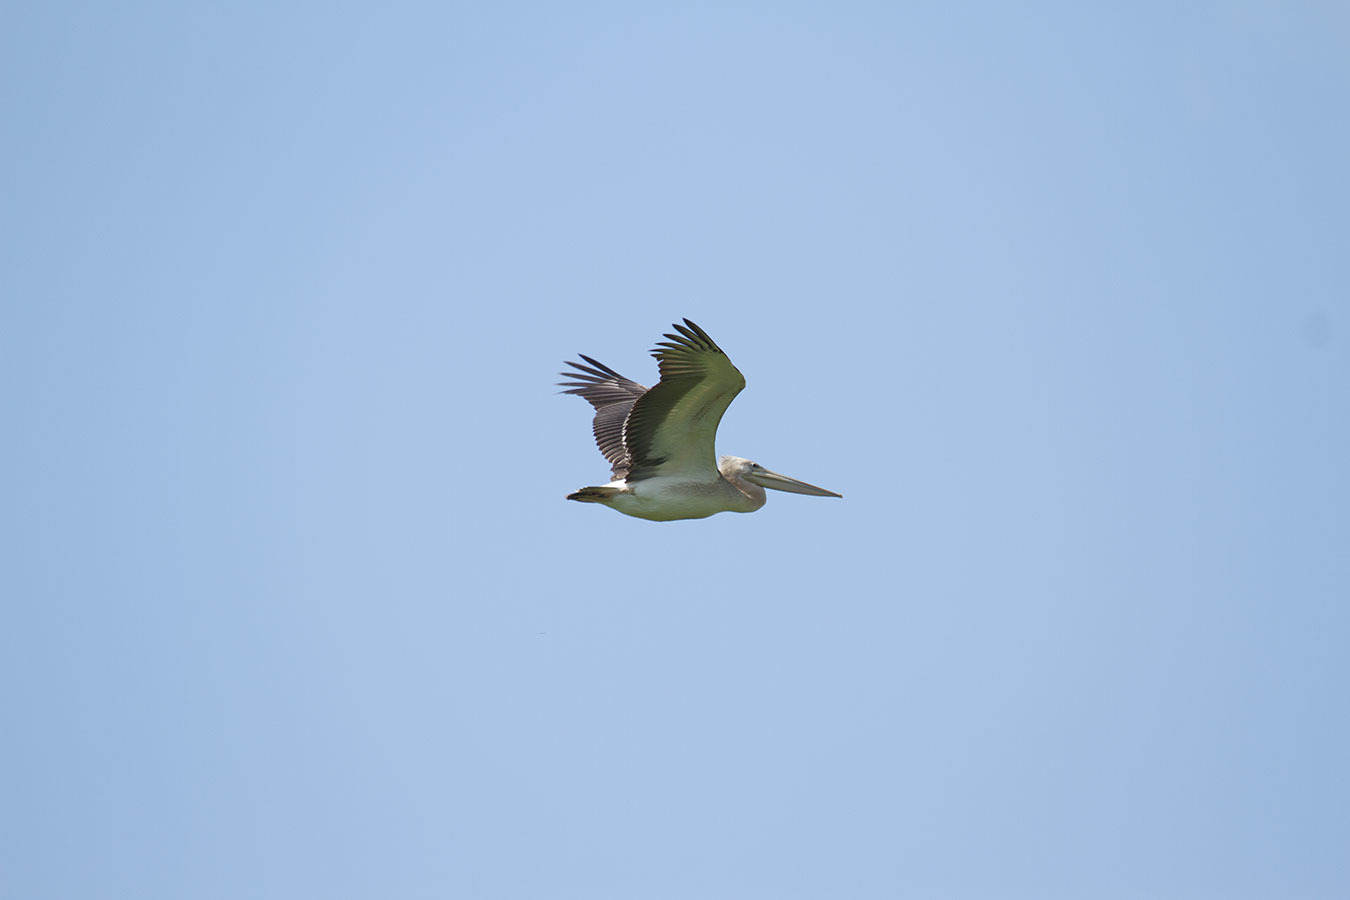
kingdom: Animalia
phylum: Chordata
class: Aves
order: Pelecaniformes
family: Pelecanidae
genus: Pelecanus
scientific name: Pelecanus rufescens
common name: Pink-backed pelican
